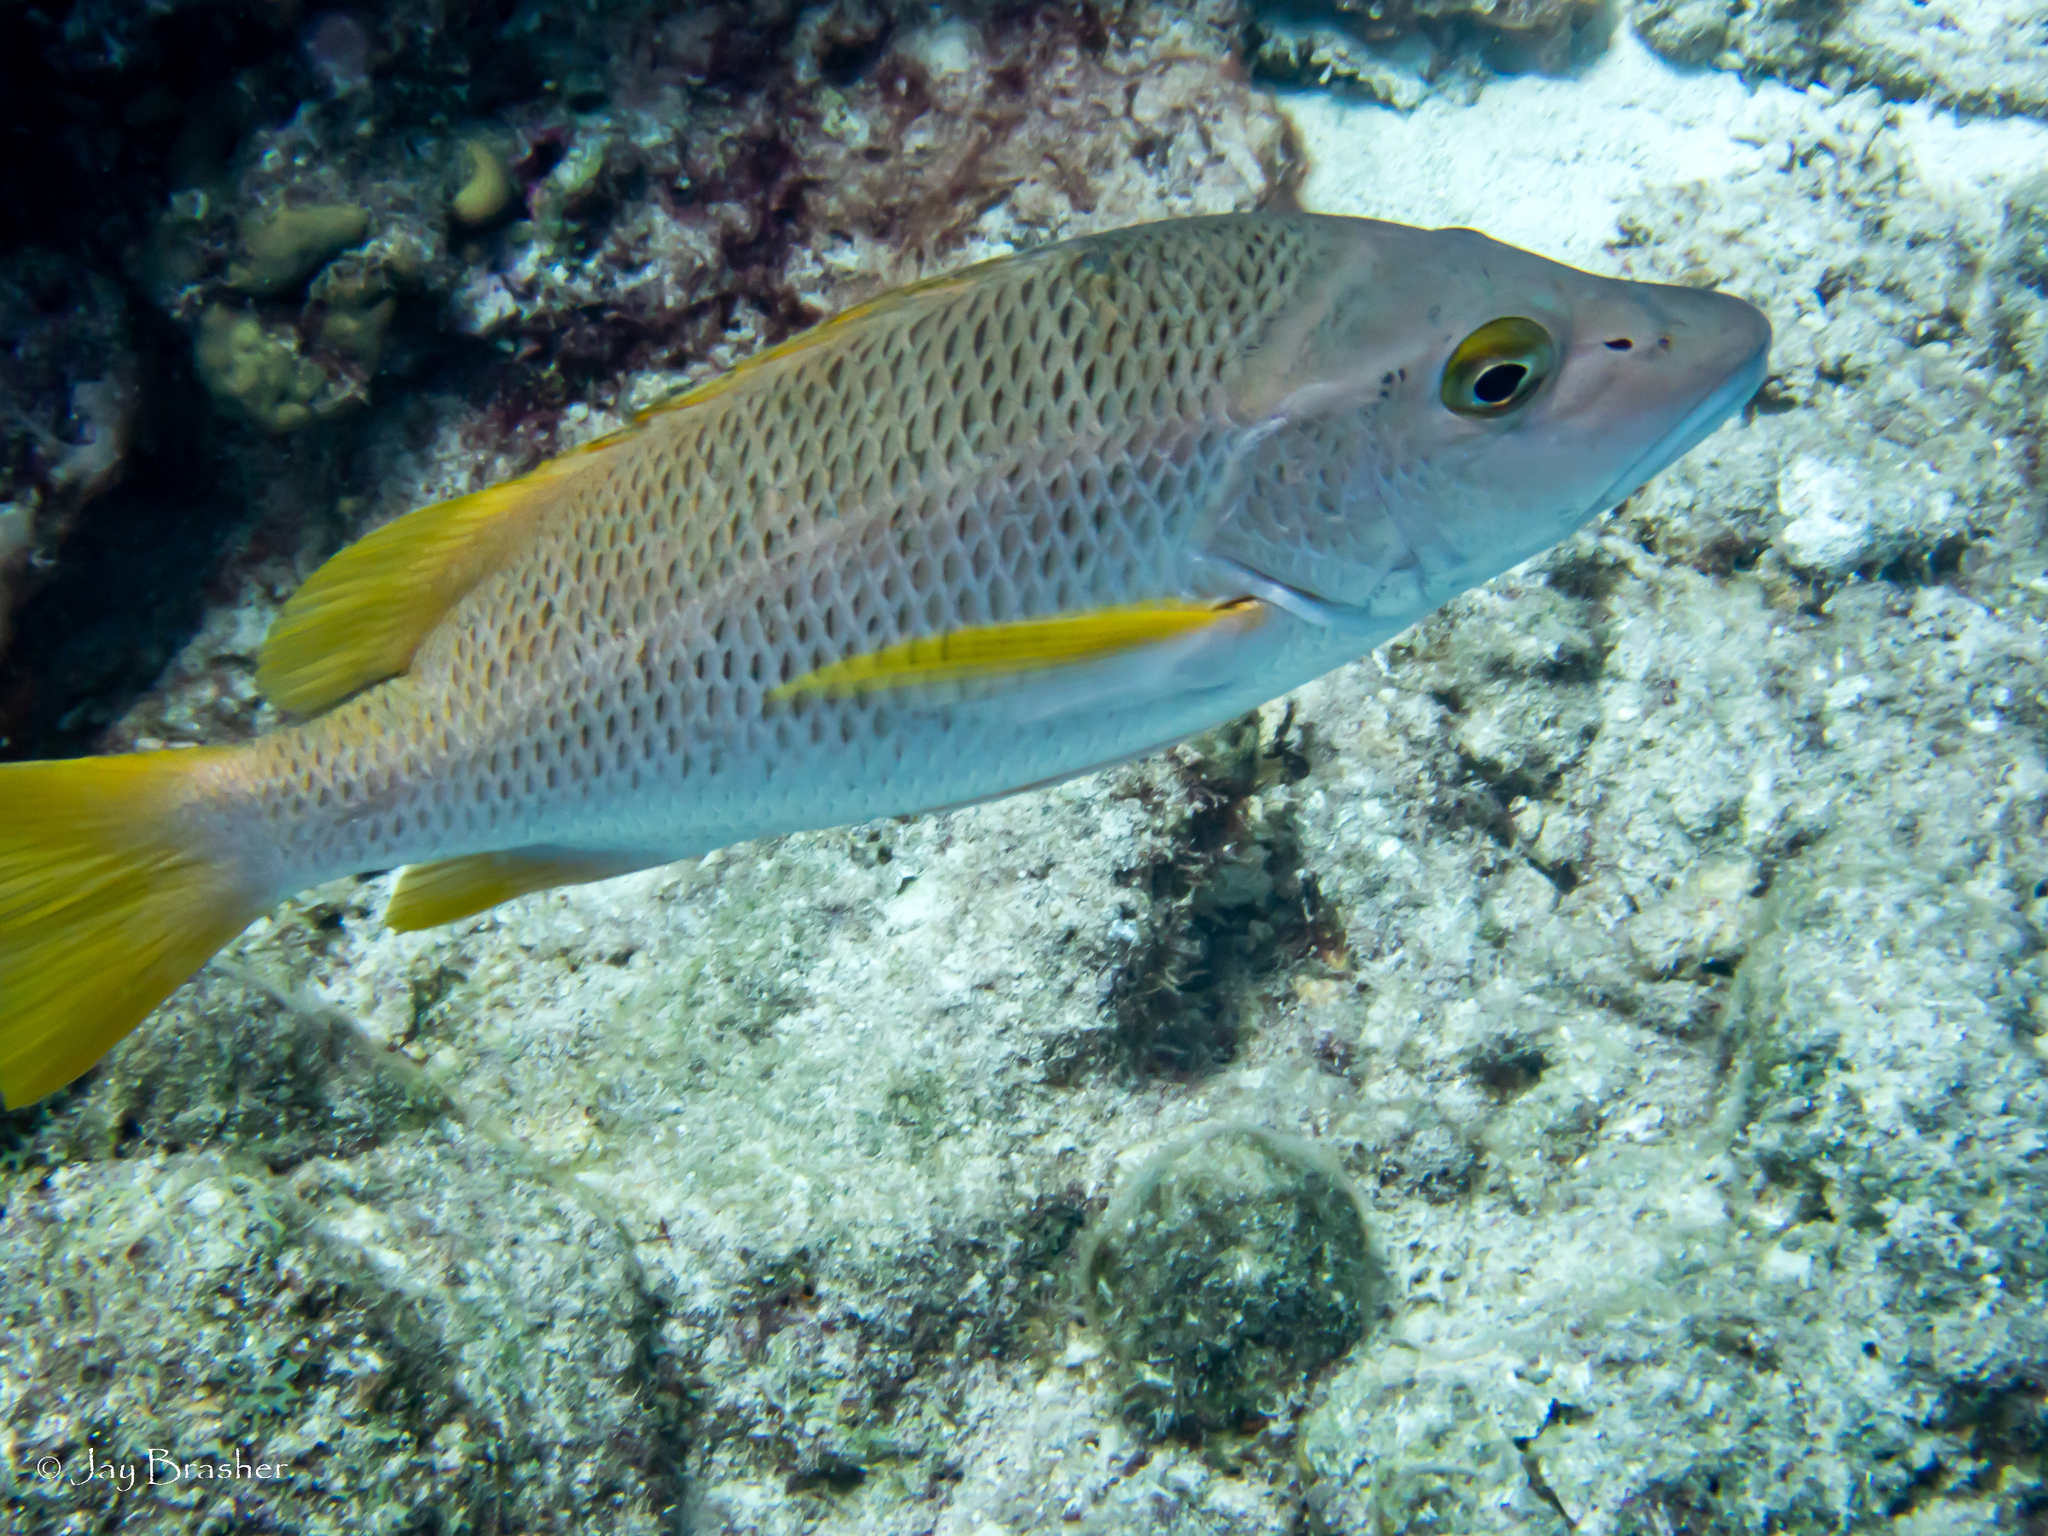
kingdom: Animalia
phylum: Chordata
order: Perciformes
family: Lutjanidae
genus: Lutjanus
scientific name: Lutjanus apodus
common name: Schoolmaster
